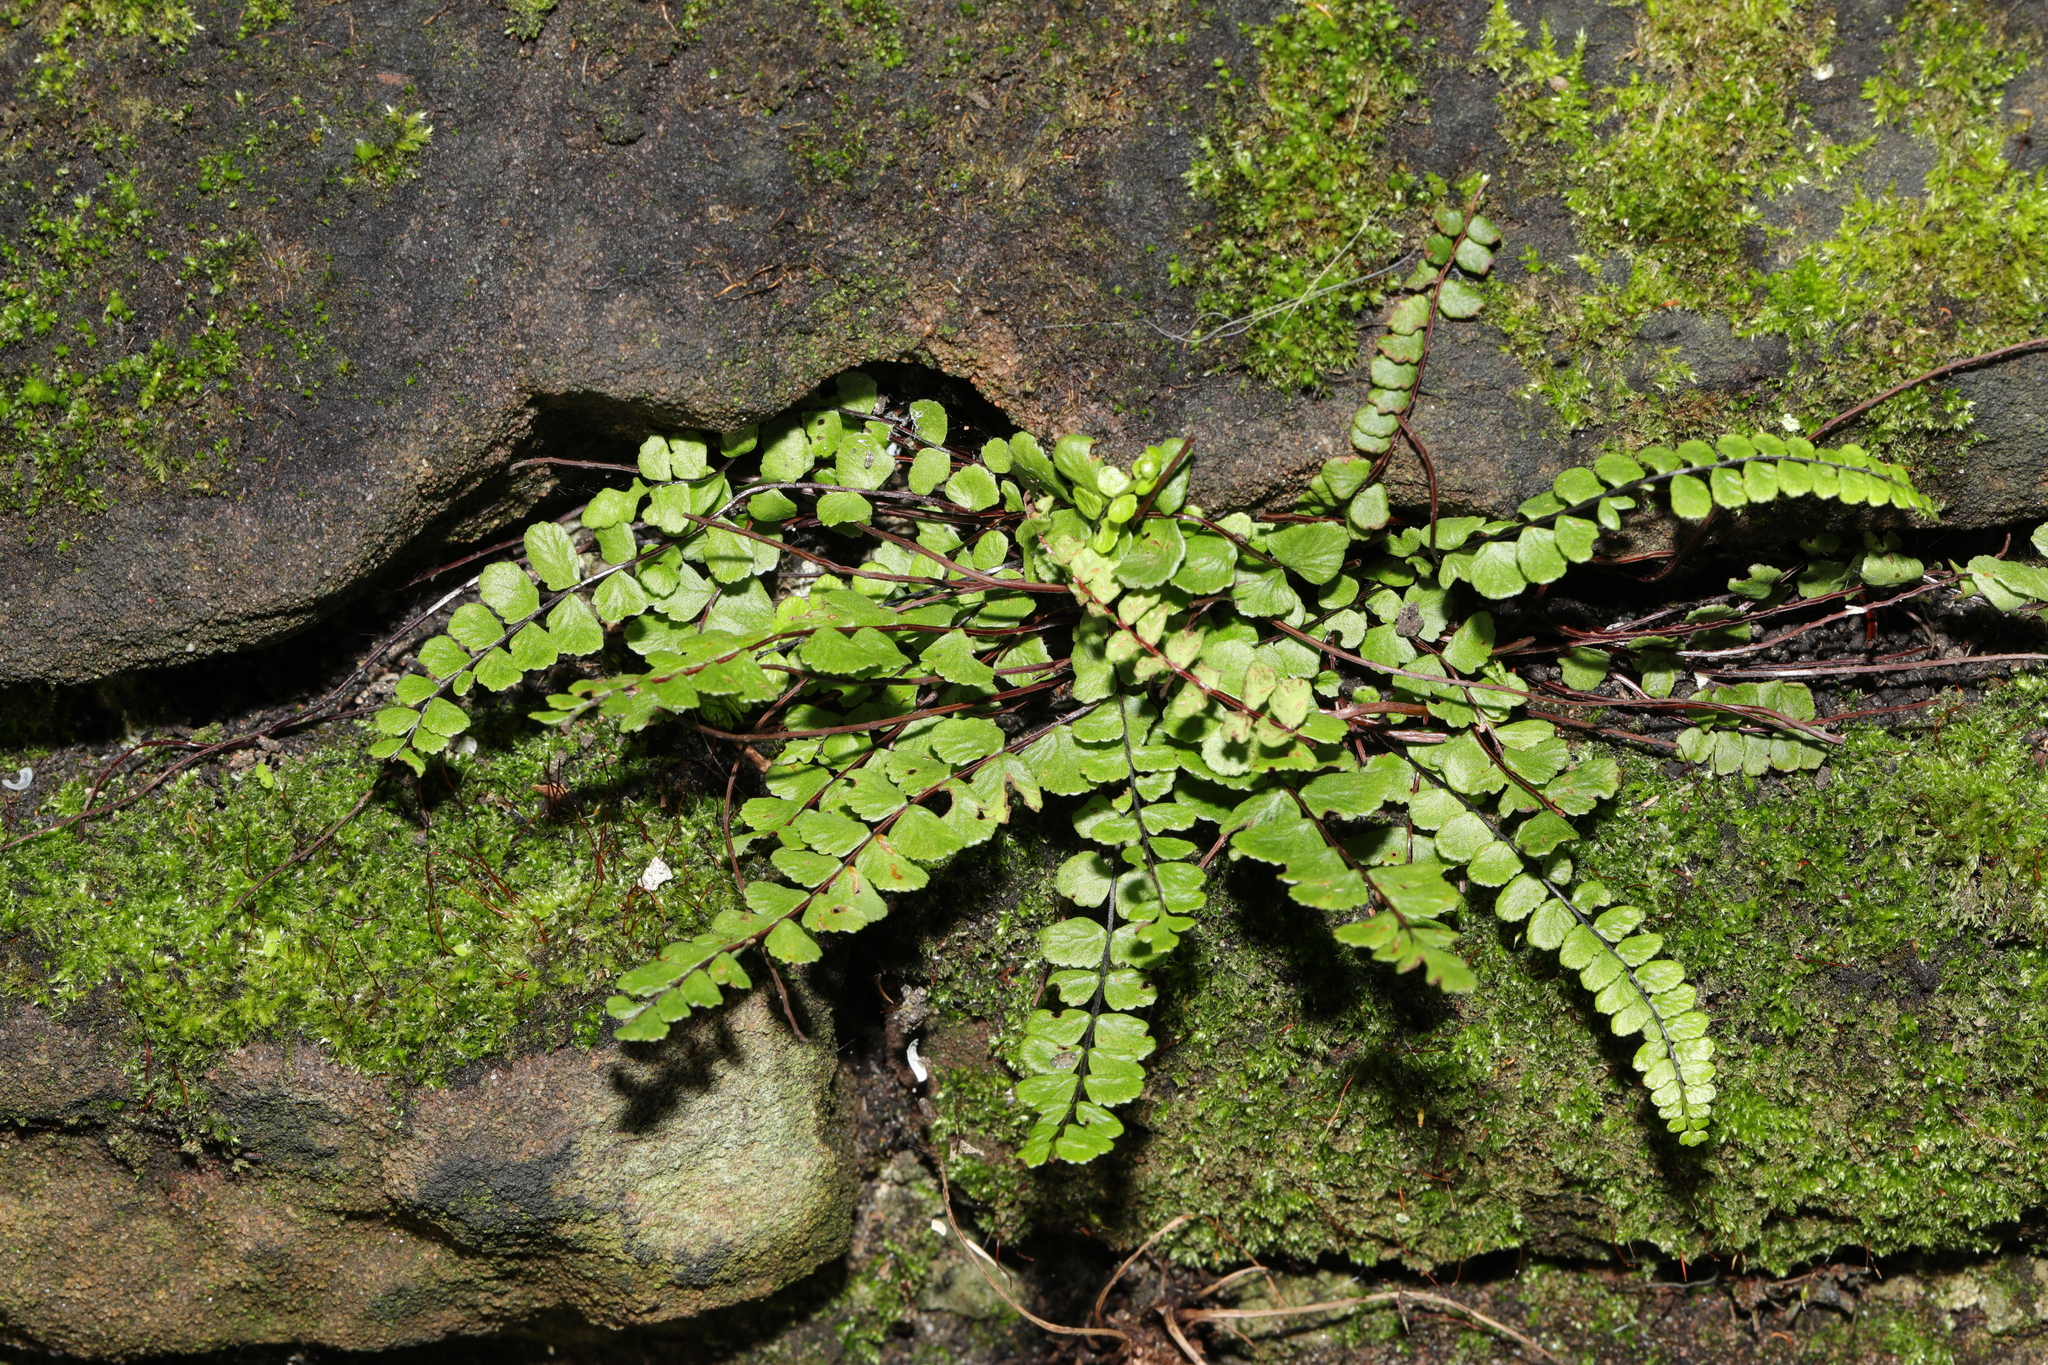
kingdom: Plantae
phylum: Tracheophyta
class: Polypodiopsida
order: Polypodiales
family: Aspleniaceae
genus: Asplenium
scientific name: Asplenium trichomanes
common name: Maidenhair spleenwort
